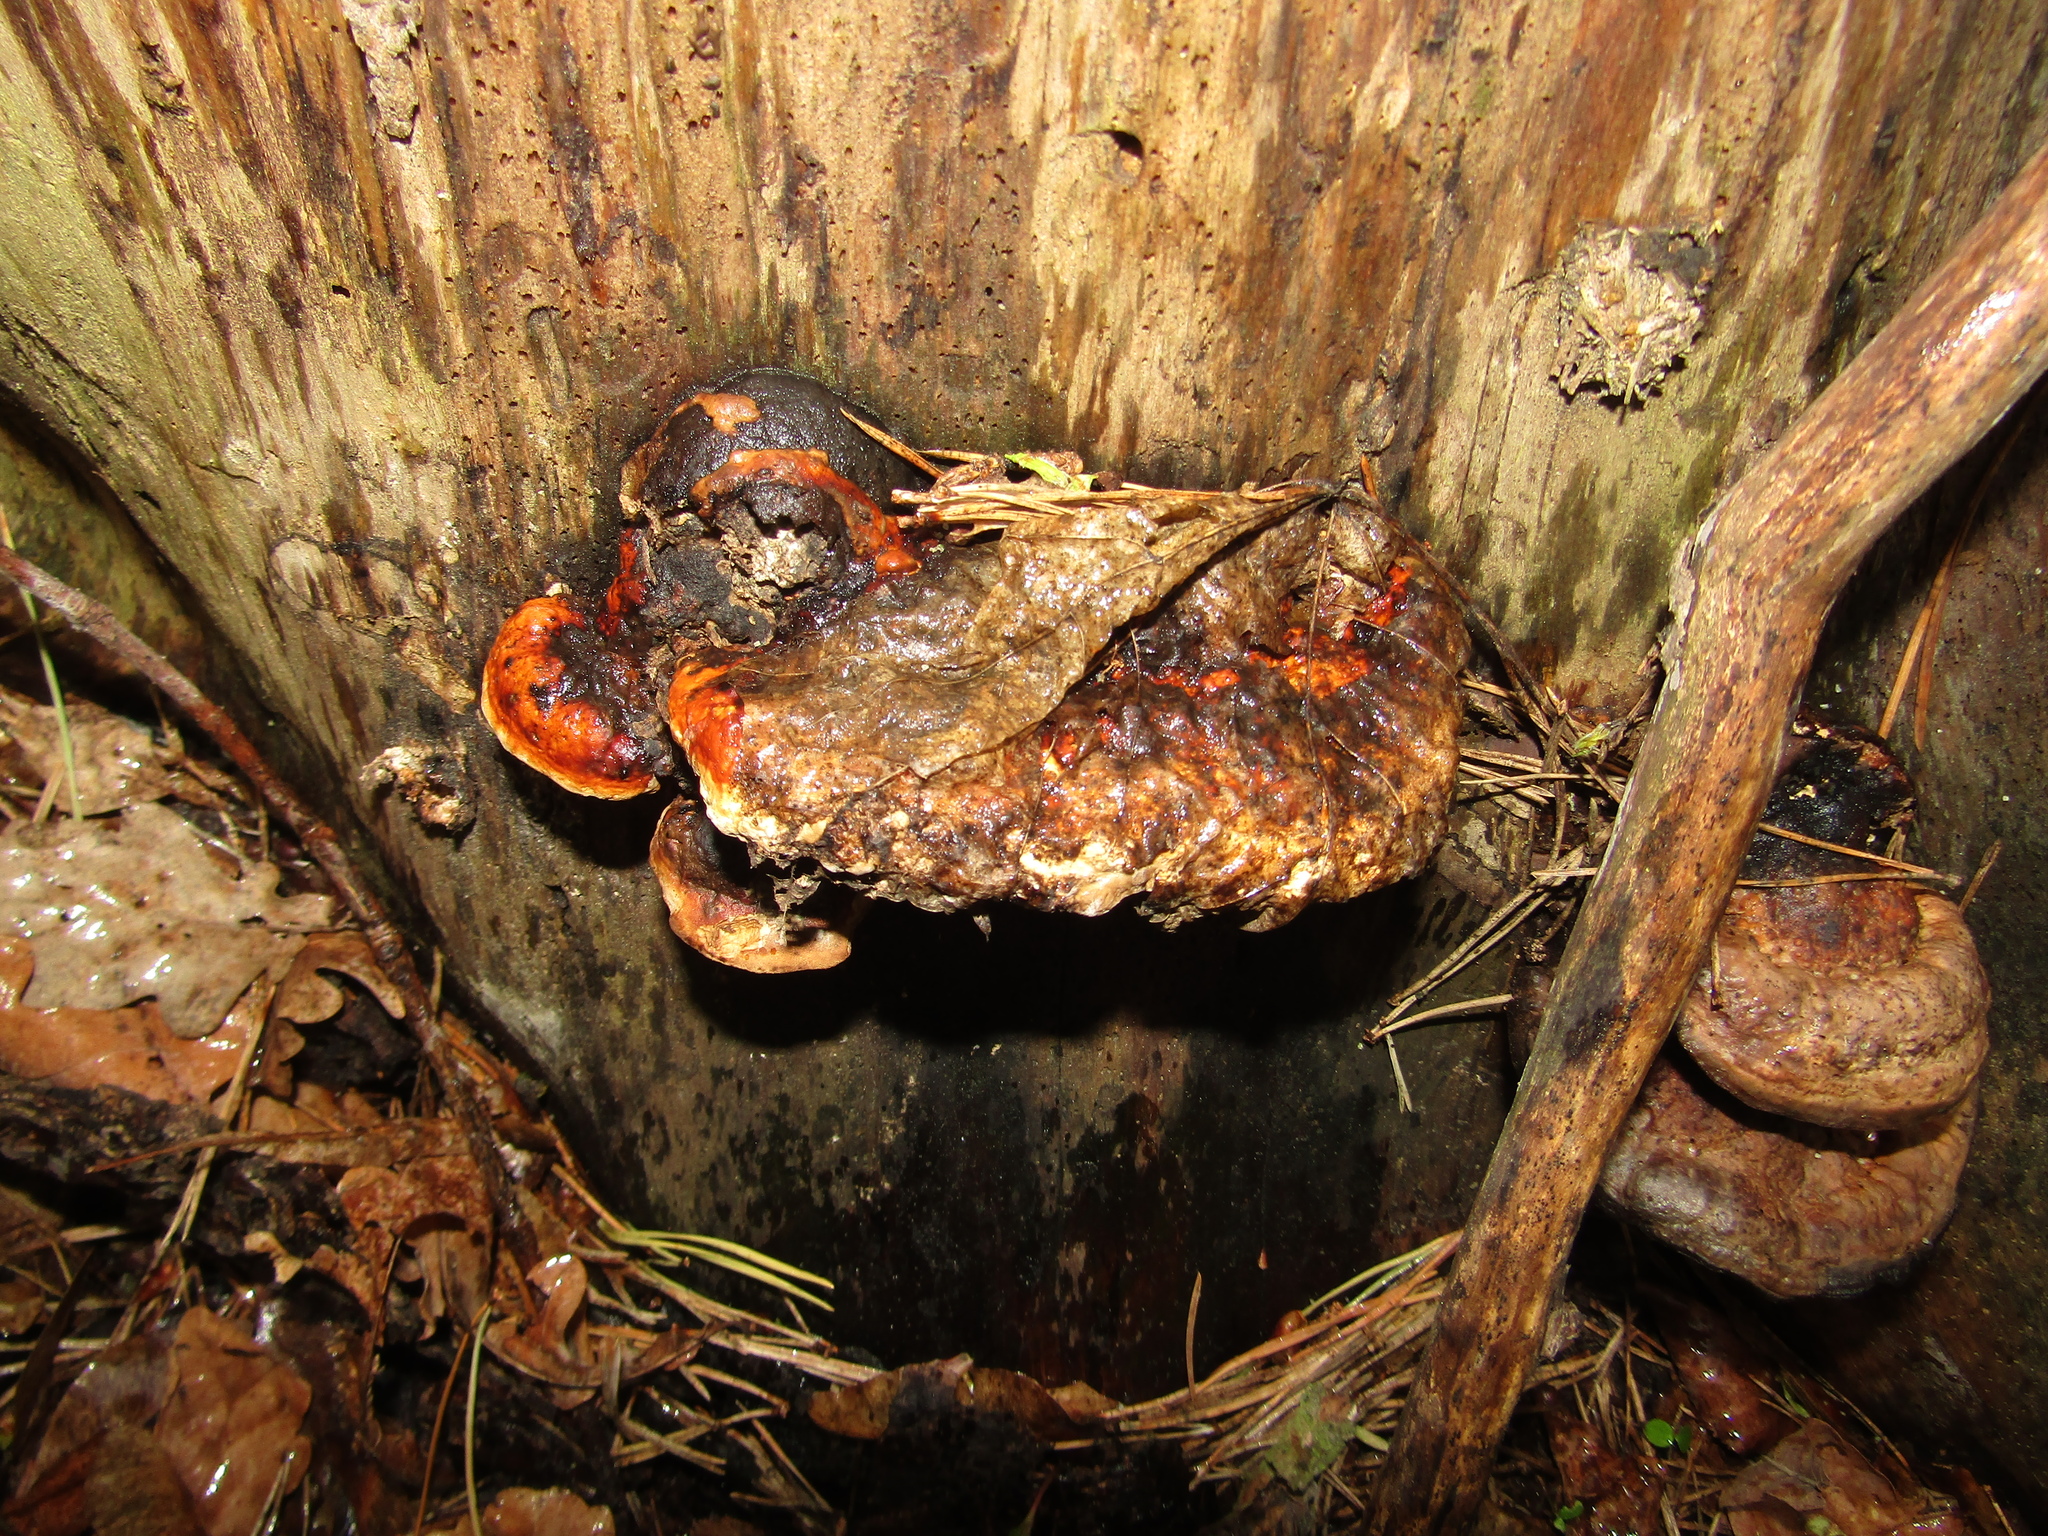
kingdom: Fungi
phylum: Basidiomycota
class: Agaricomycetes
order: Polyporales
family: Fomitopsidaceae
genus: Fomitopsis
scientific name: Fomitopsis pinicola
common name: Red-belted bracket
